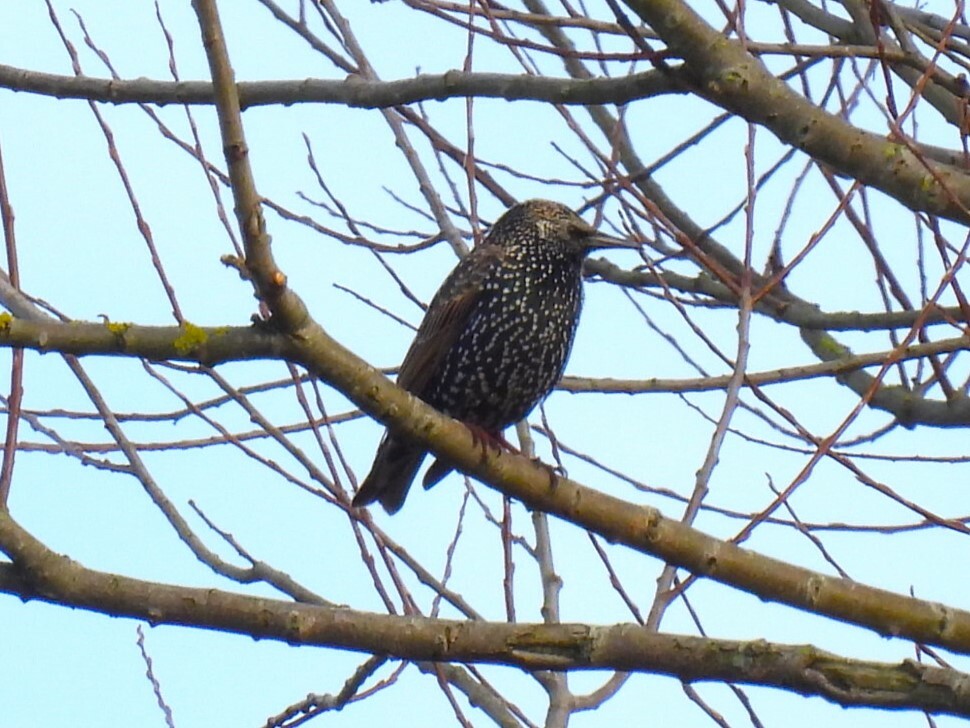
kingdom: Animalia
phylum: Chordata
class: Aves
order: Passeriformes
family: Sturnidae
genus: Sturnus
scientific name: Sturnus vulgaris
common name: Common starling
